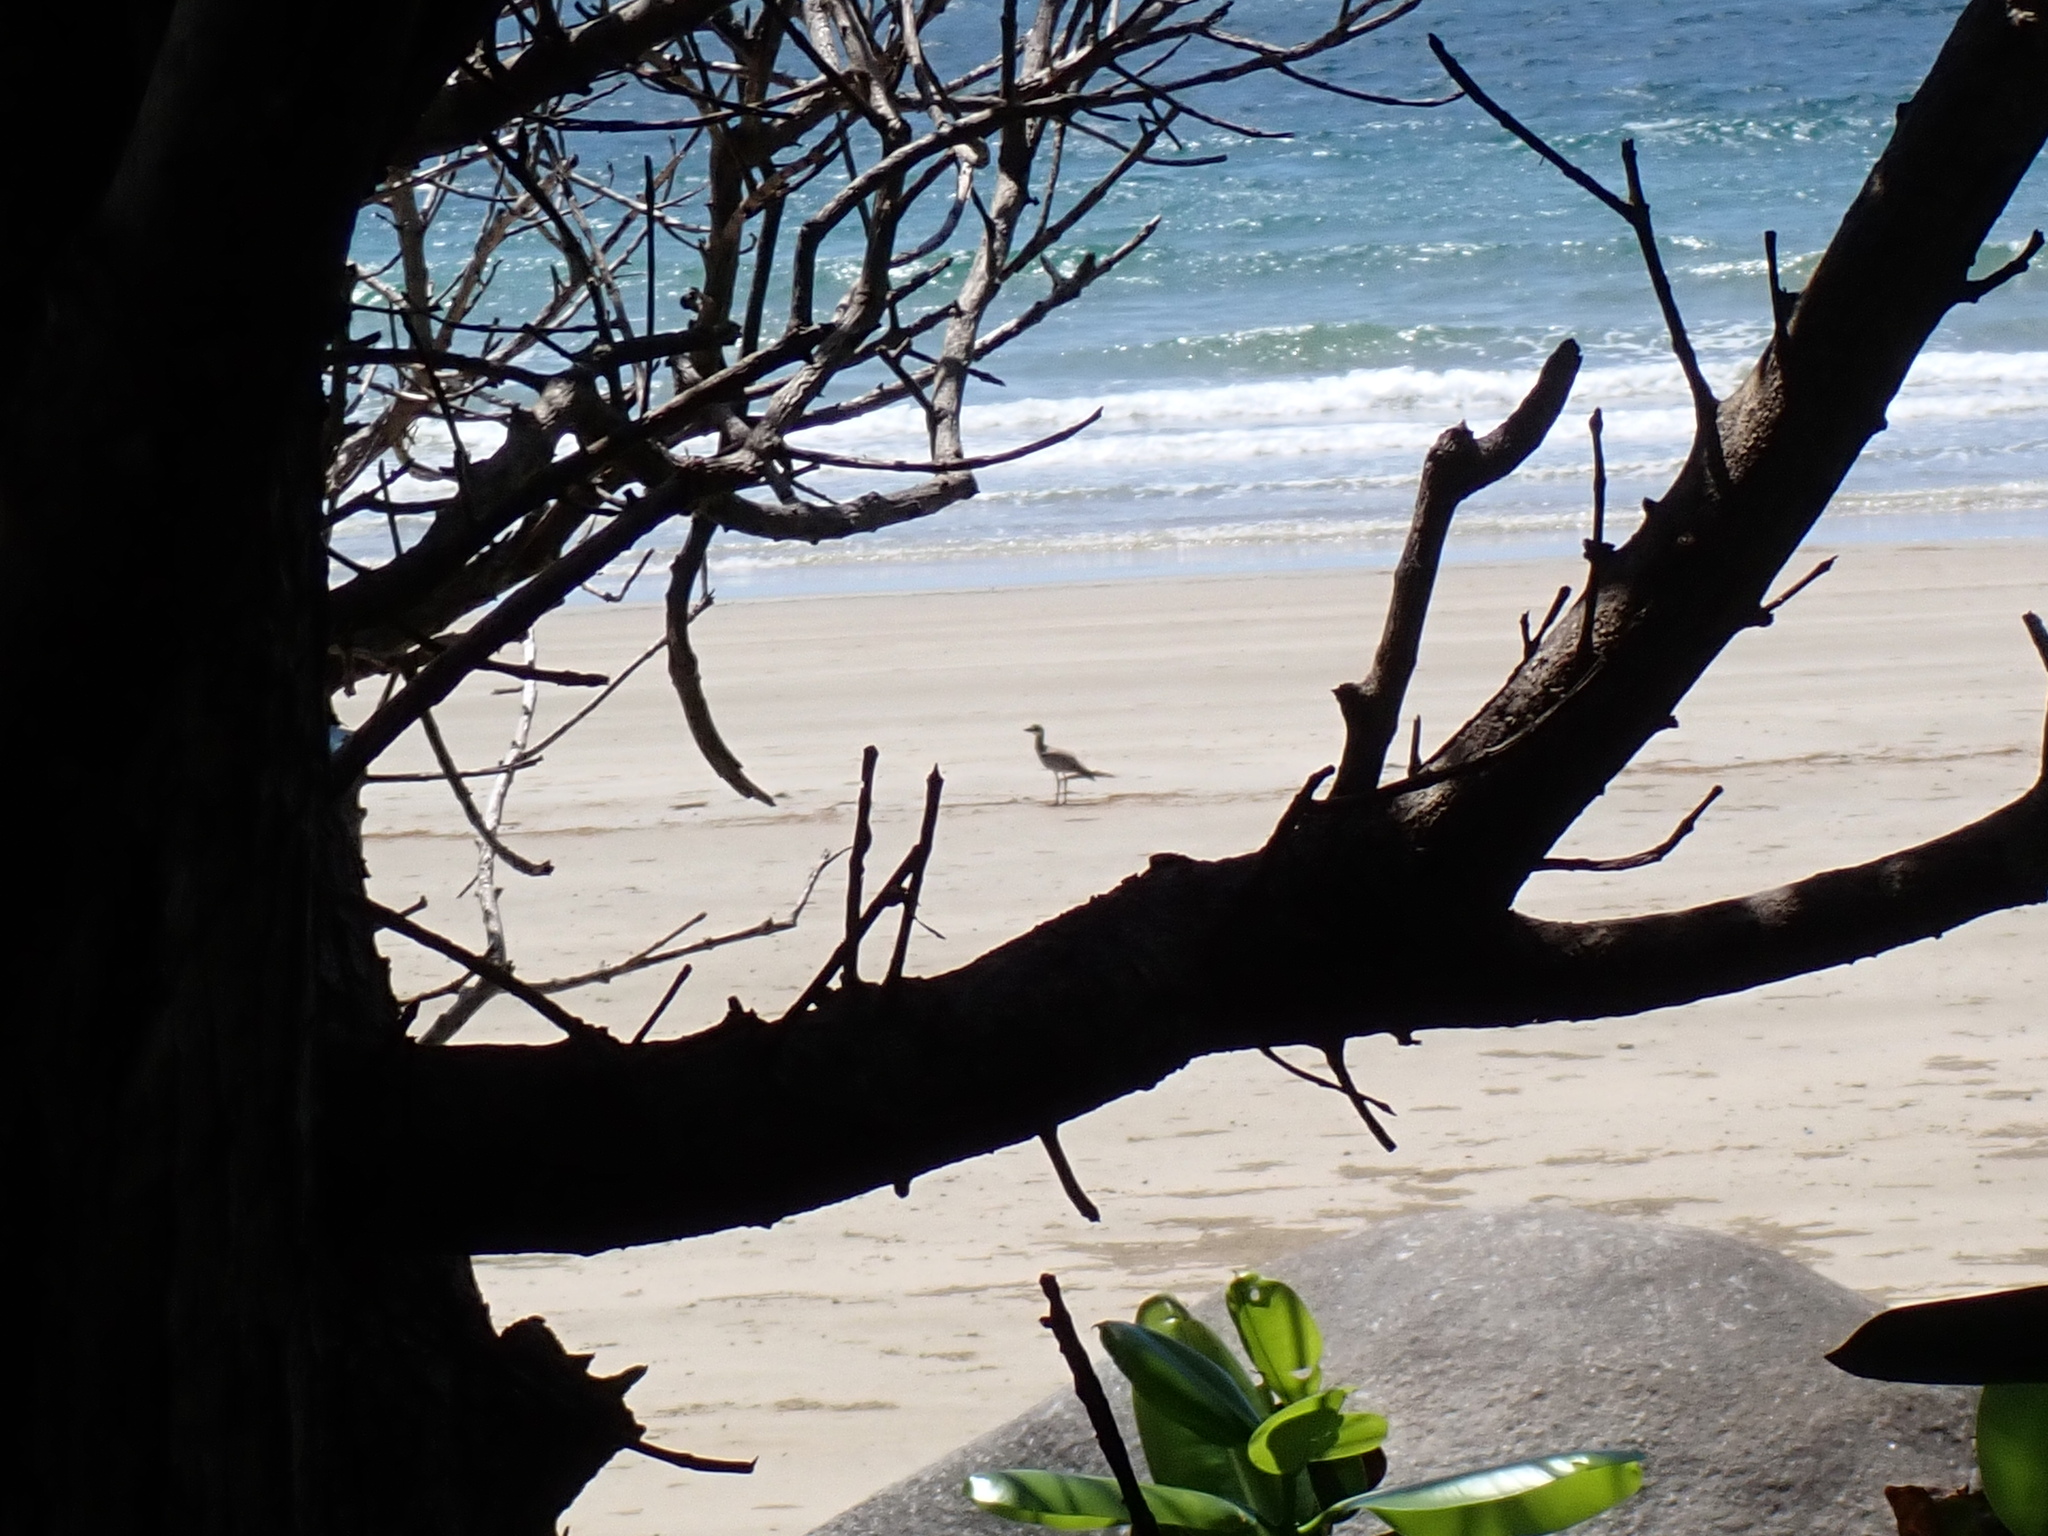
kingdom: Animalia
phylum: Chordata
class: Aves
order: Charadriiformes
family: Burhinidae
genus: Esacus
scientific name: Esacus magnirostris
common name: Beach stone-curlew
